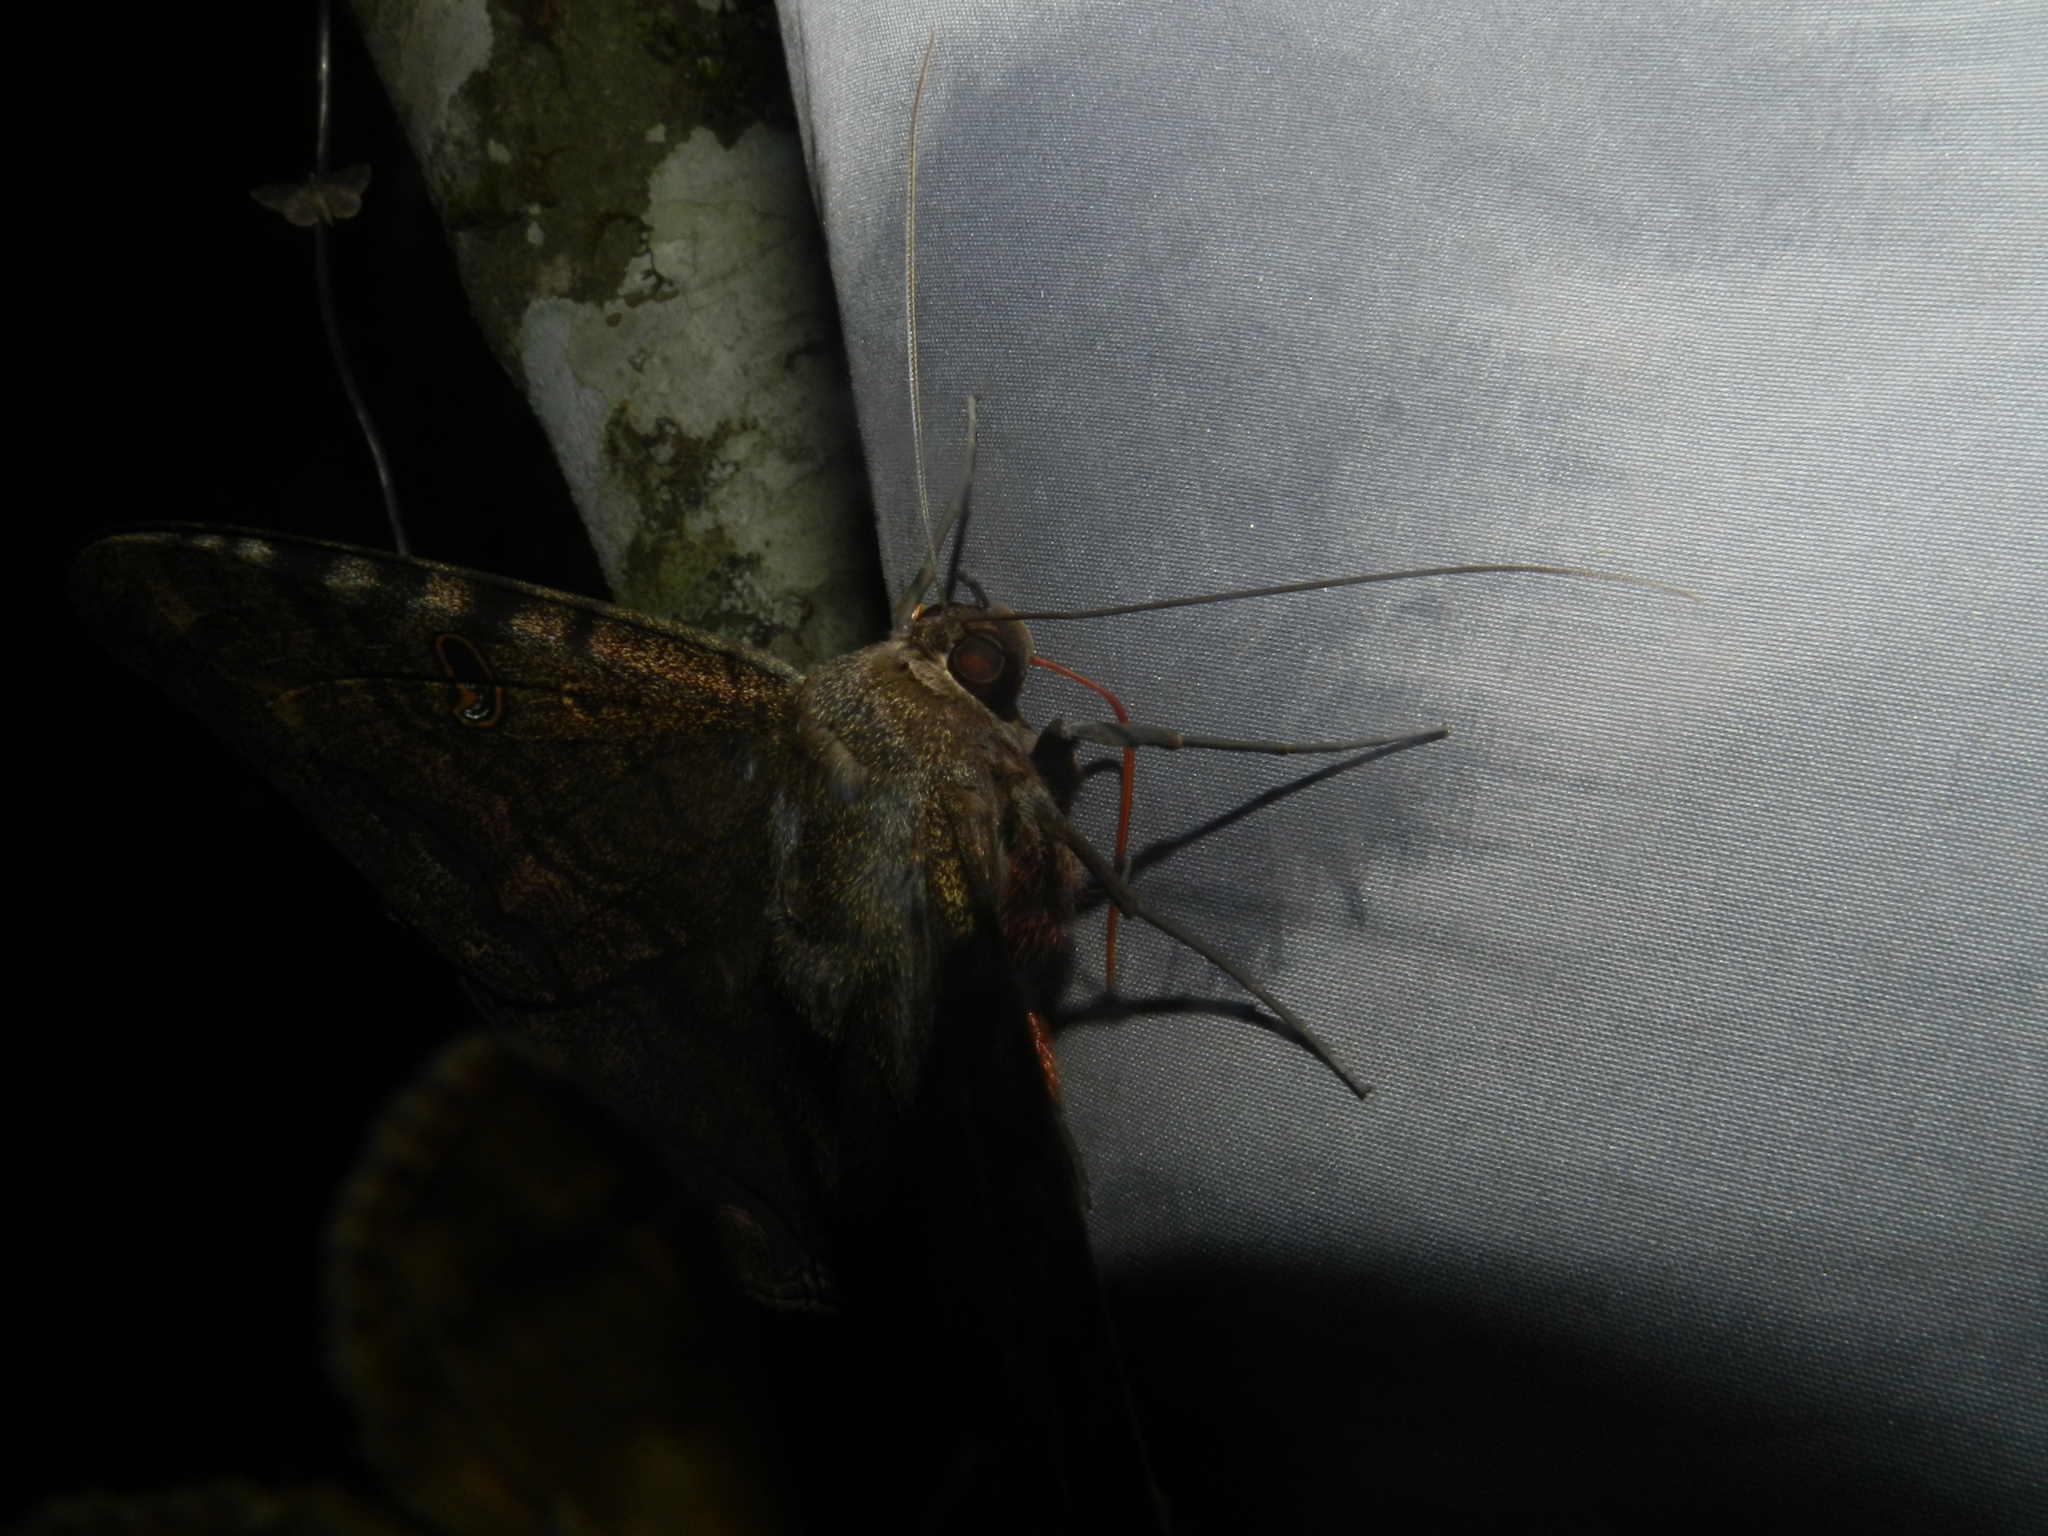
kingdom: Animalia
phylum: Arthropoda
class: Insecta
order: Lepidoptera
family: Erebidae
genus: Ascalapha
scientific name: Ascalapha odorata
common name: Black witch
